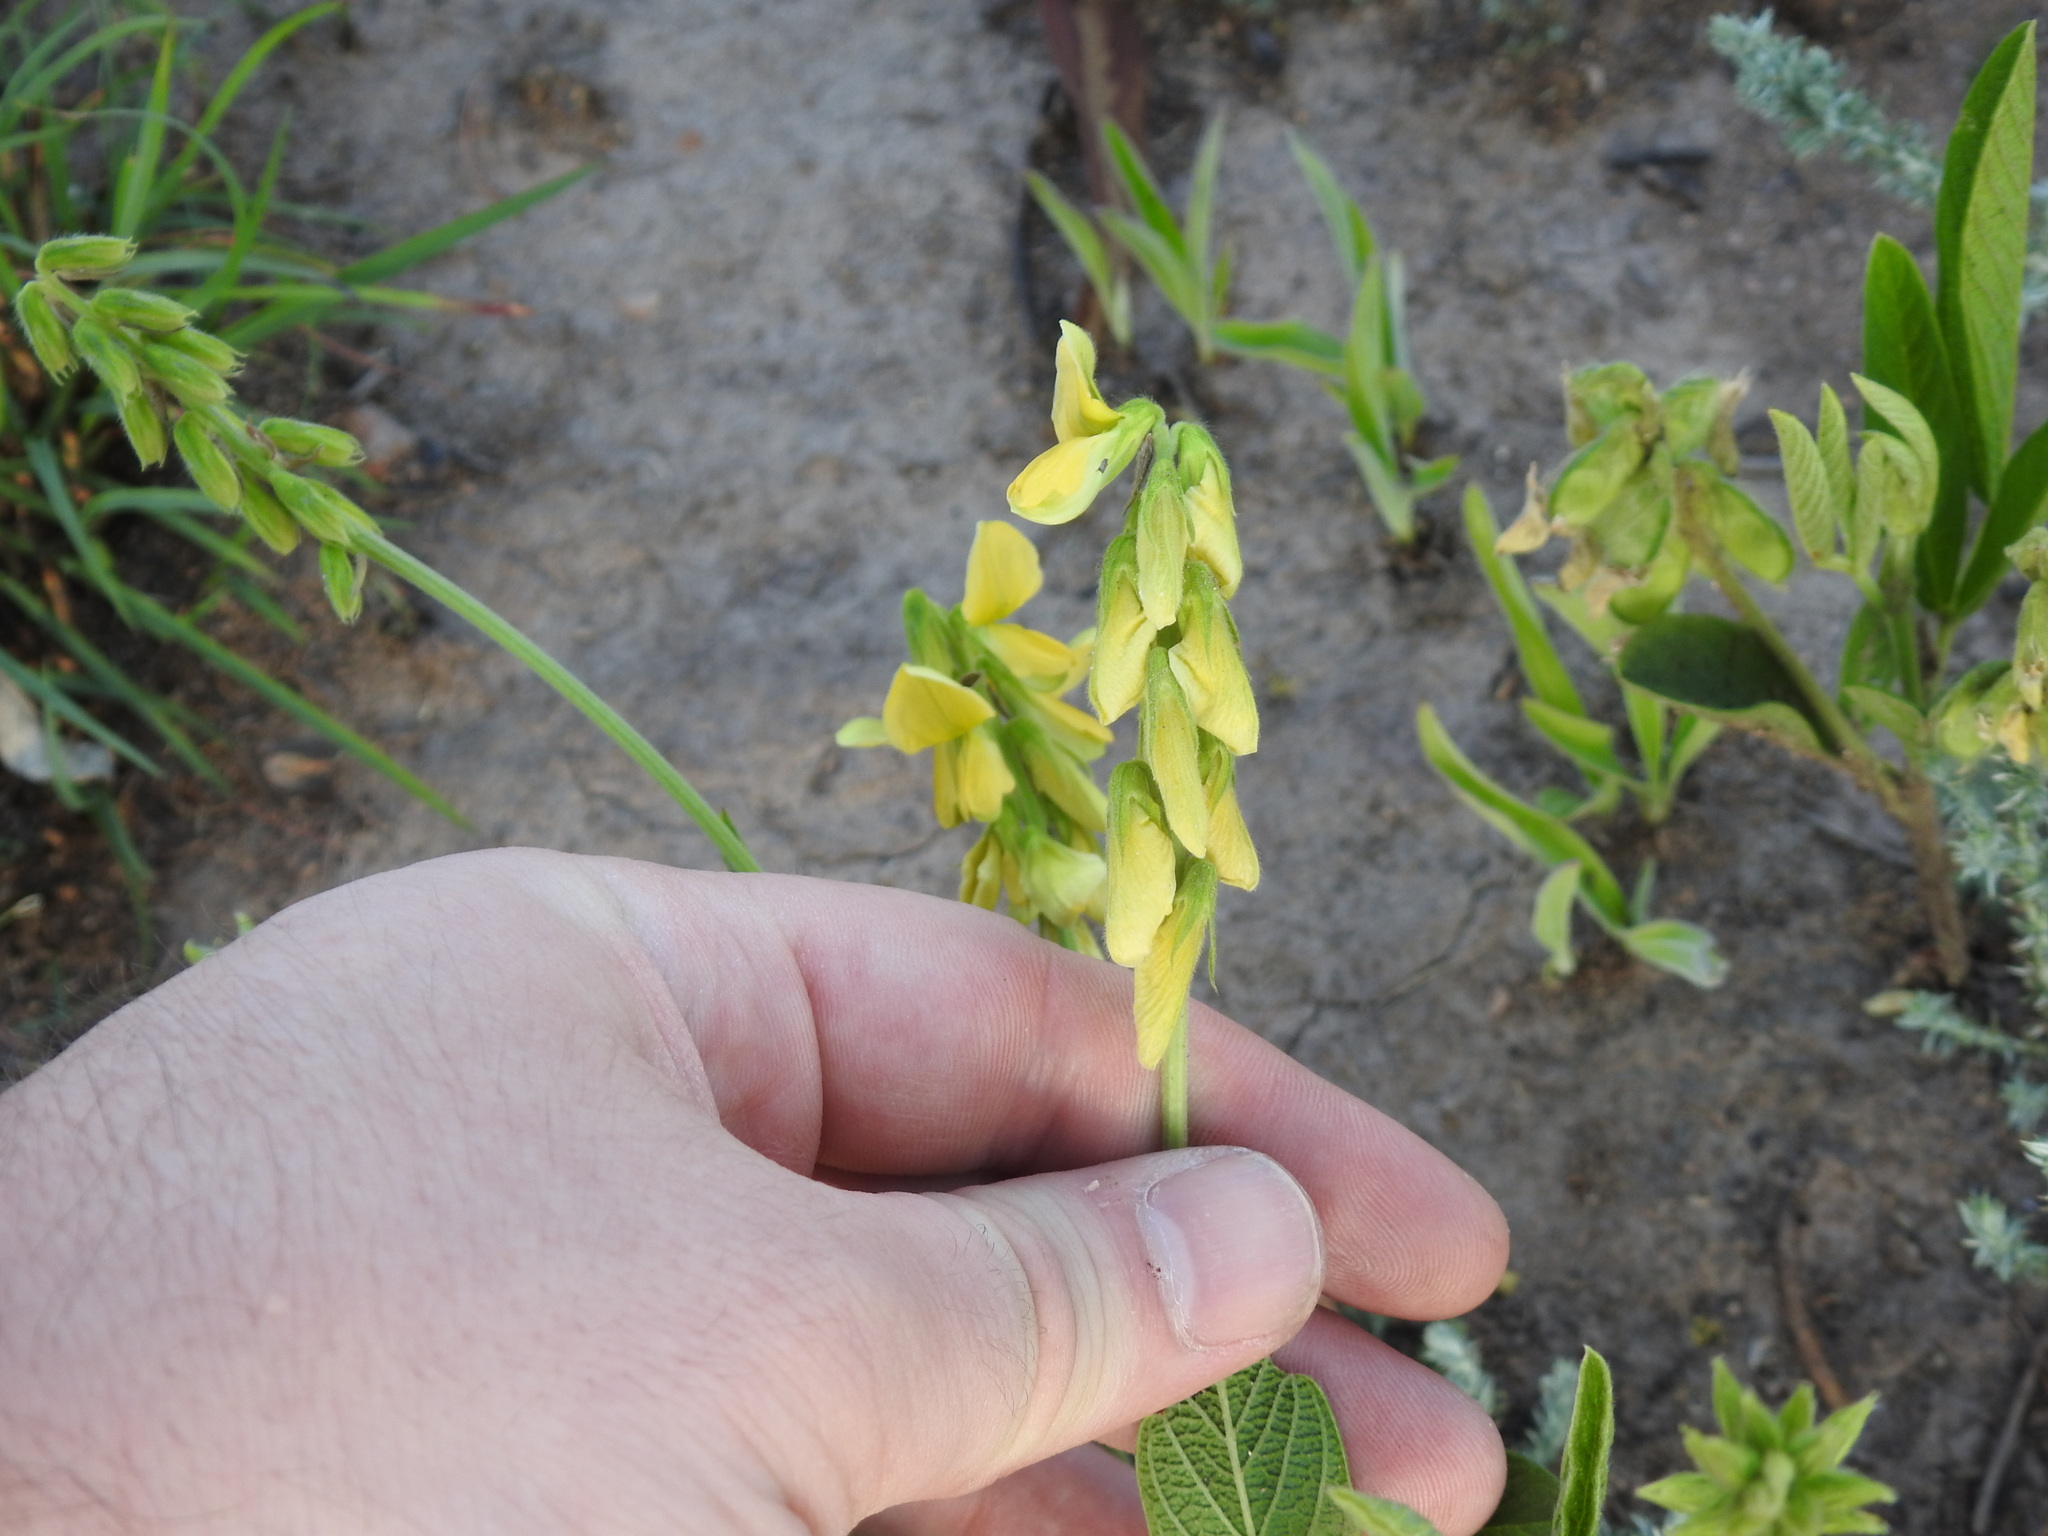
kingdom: Plantae
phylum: Tracheophyta
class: Magnoliopsida
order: Fabales
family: Fabaceae
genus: Eriosema
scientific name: Eriosema burkei
